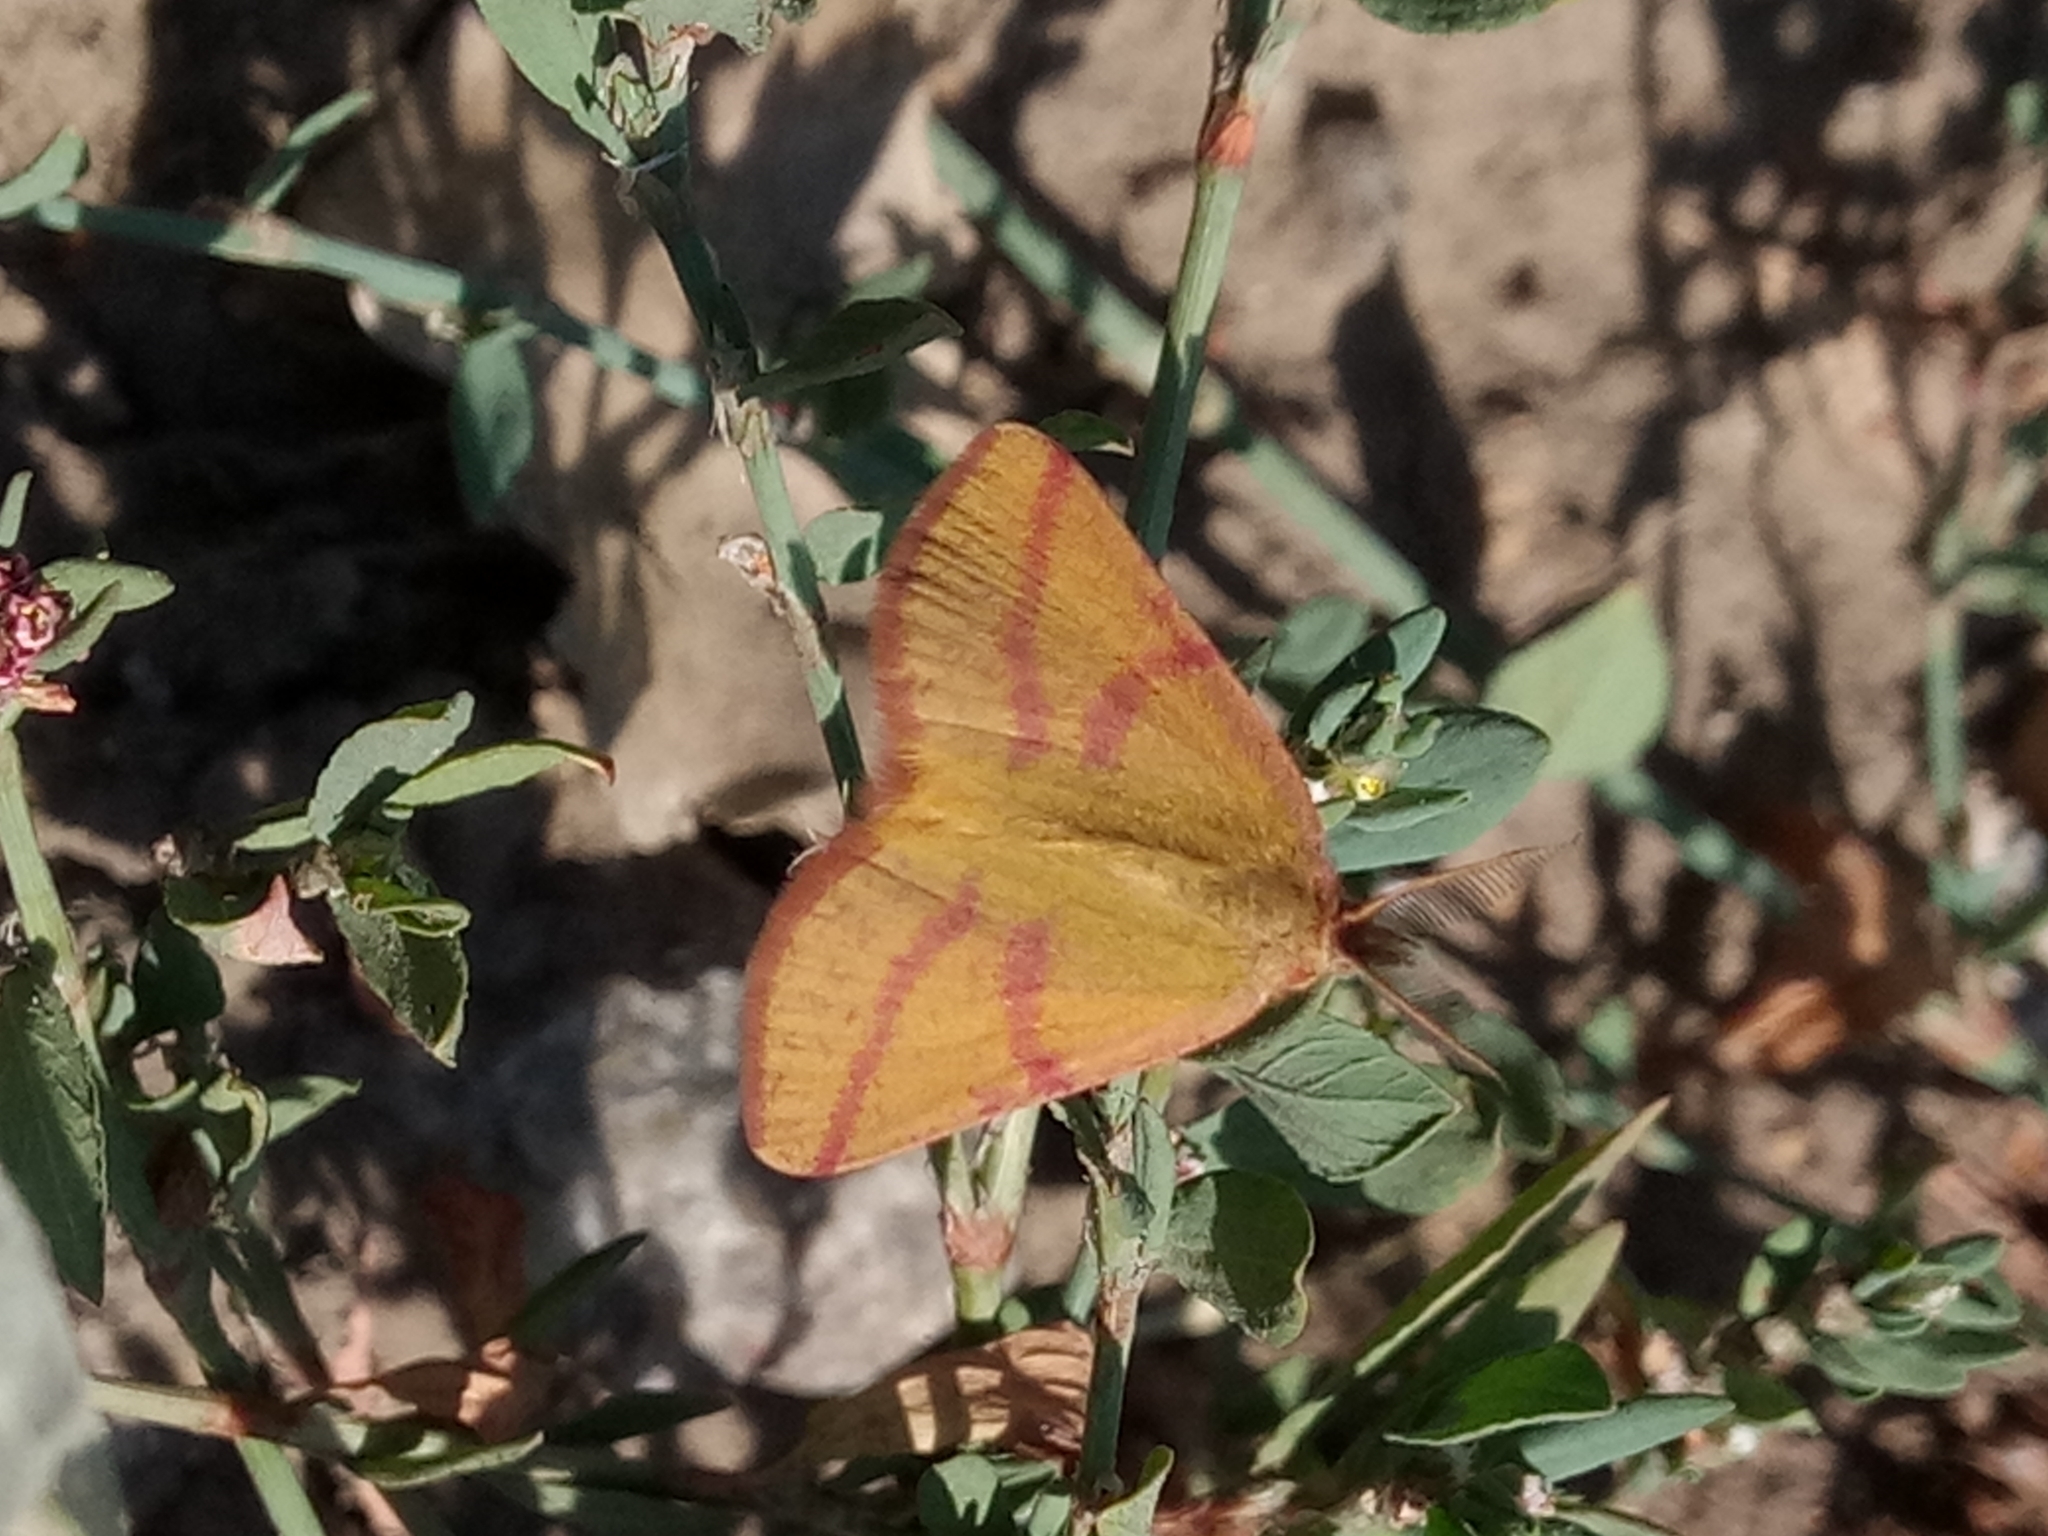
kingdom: Animalia
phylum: Arthropoda
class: Insecta
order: Lepidoptera
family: Geometridae
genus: Lythria
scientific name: Lythria purpuraria
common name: Purple-barred yellow
